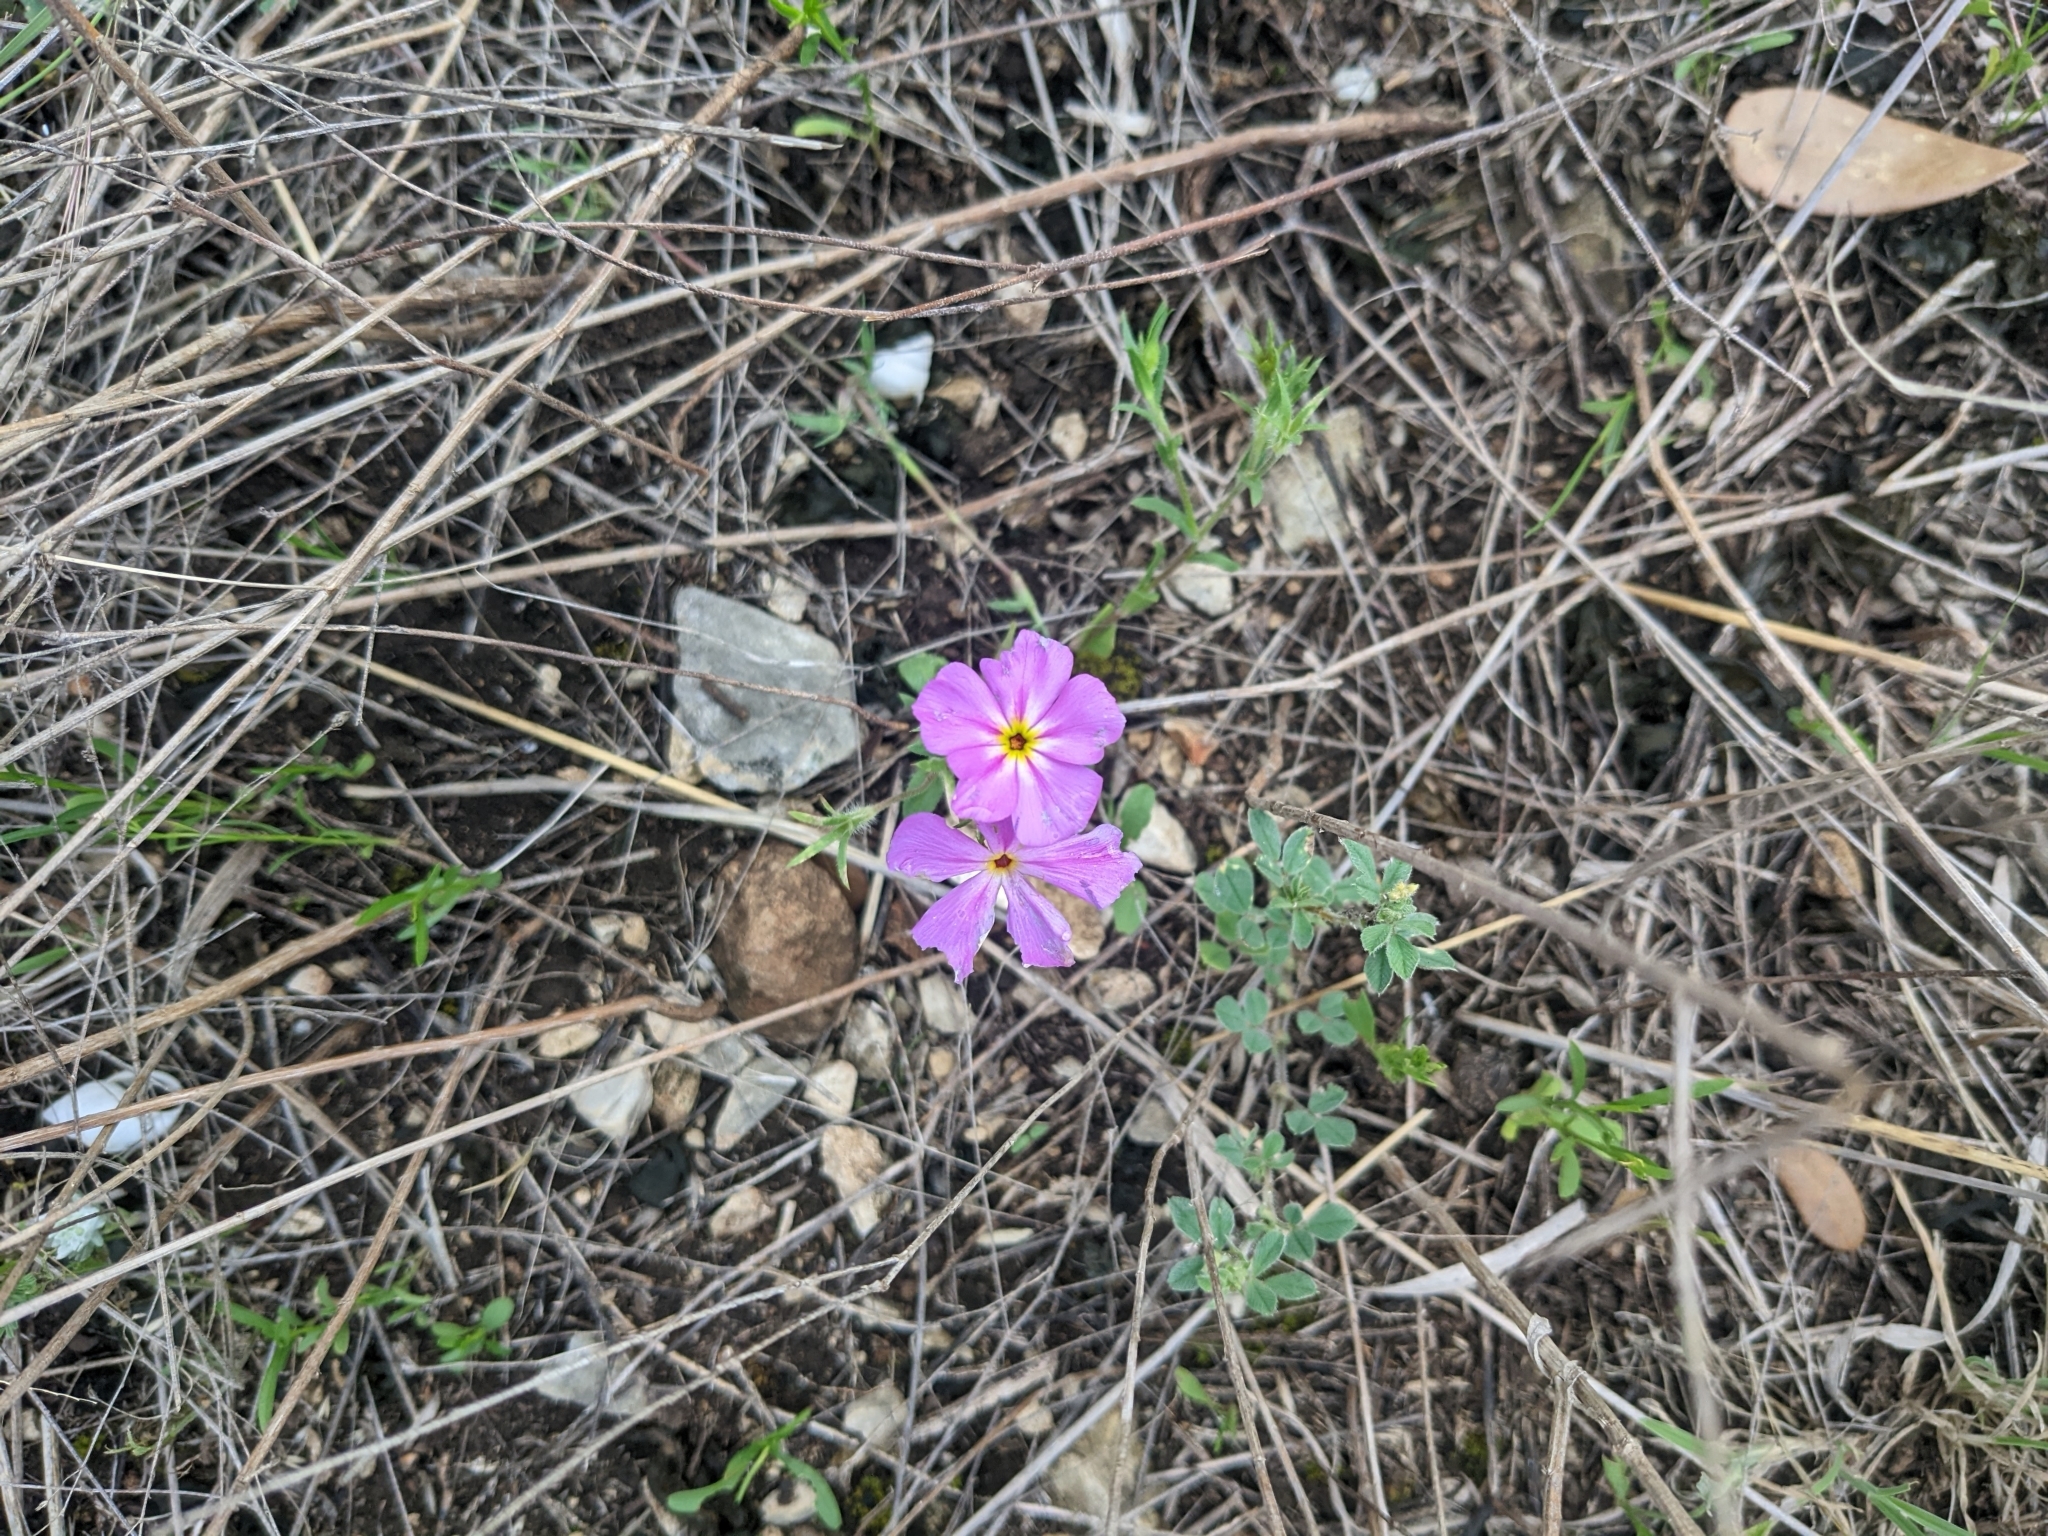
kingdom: Plantae
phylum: Tracheophyta
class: Magnoliopsida
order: Ericales
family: Polemoniaceae
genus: Phlox
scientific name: Phlox roemeriana
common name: Roemer's phlox
